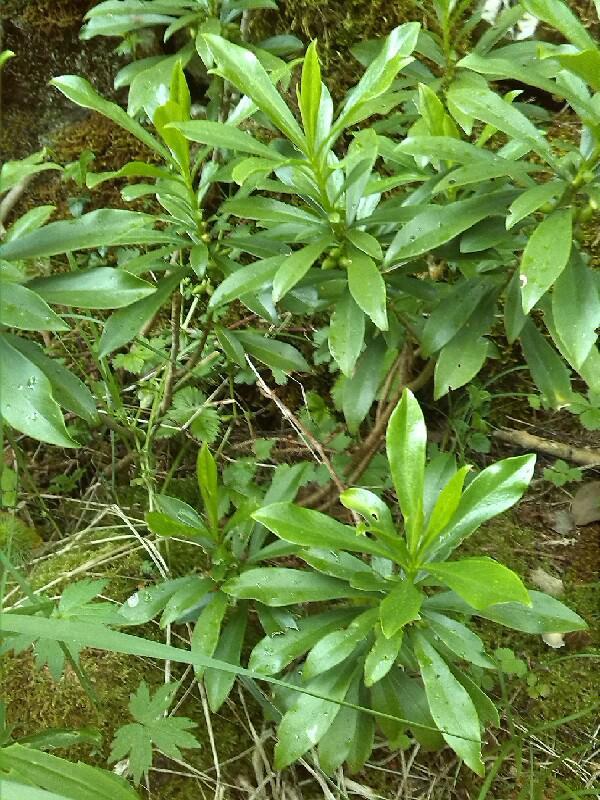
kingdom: Plantae
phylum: Tracheophyta
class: Magnoliopsida
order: Malvales
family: Thymelaeaceae
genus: Daphne
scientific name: Daphne laureola
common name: Spurge-laurel
